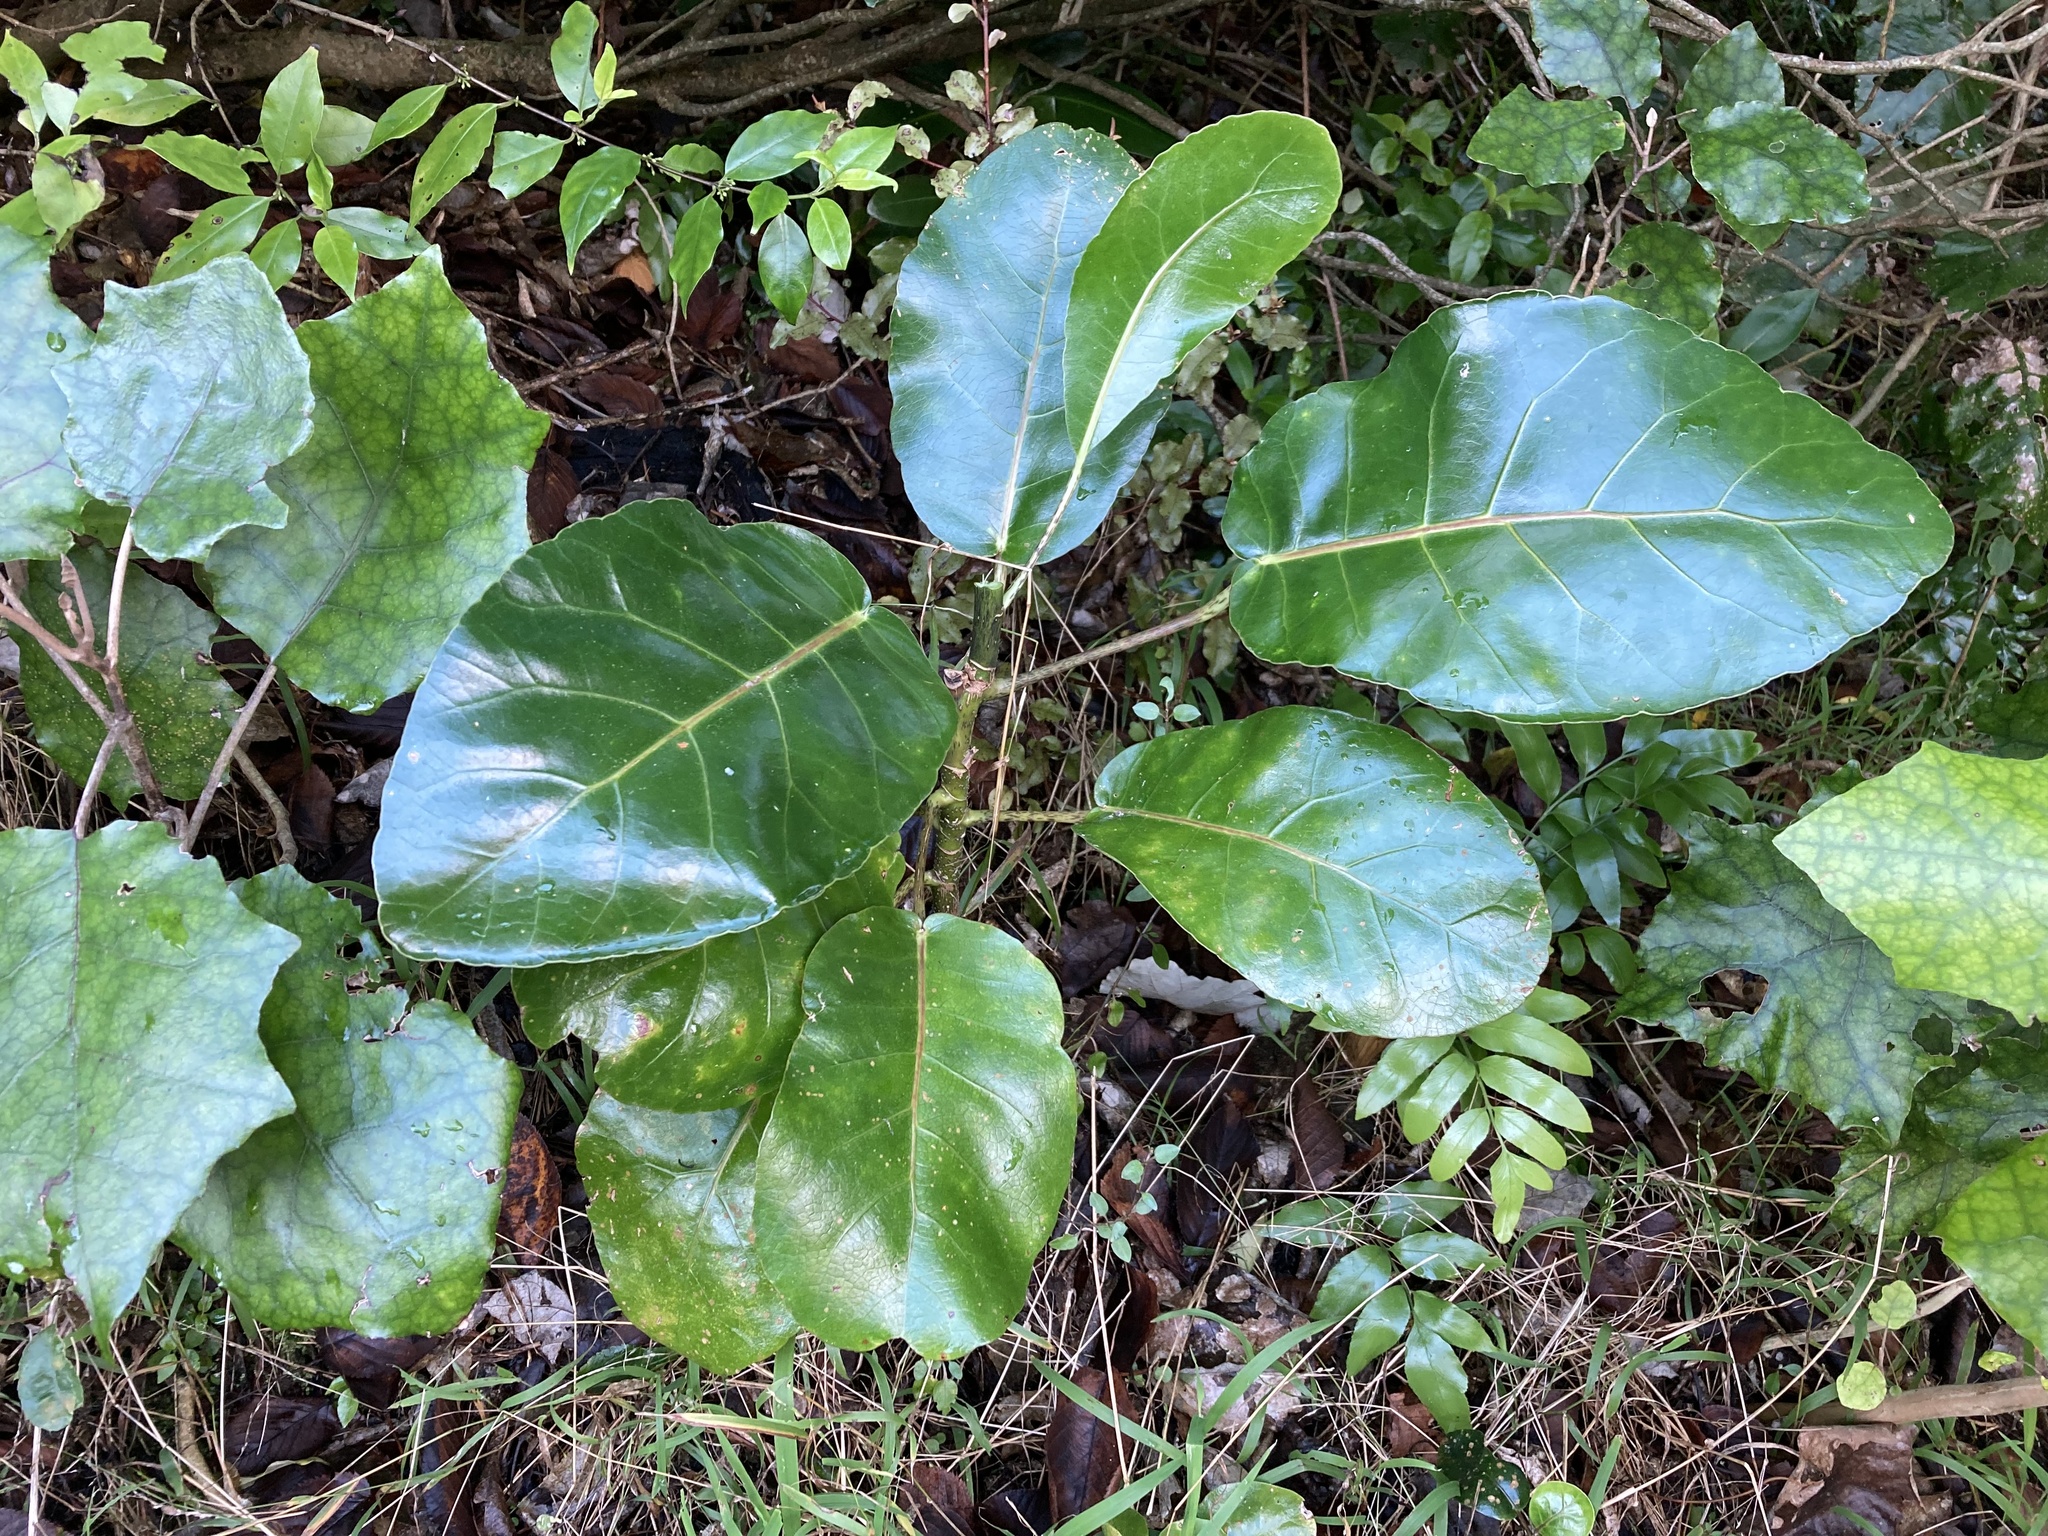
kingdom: Plantae
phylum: Tracheophyta
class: Magnoliopsida
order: Apiales
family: Araliaceae
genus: Meryta
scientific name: Meryta sinclairii
